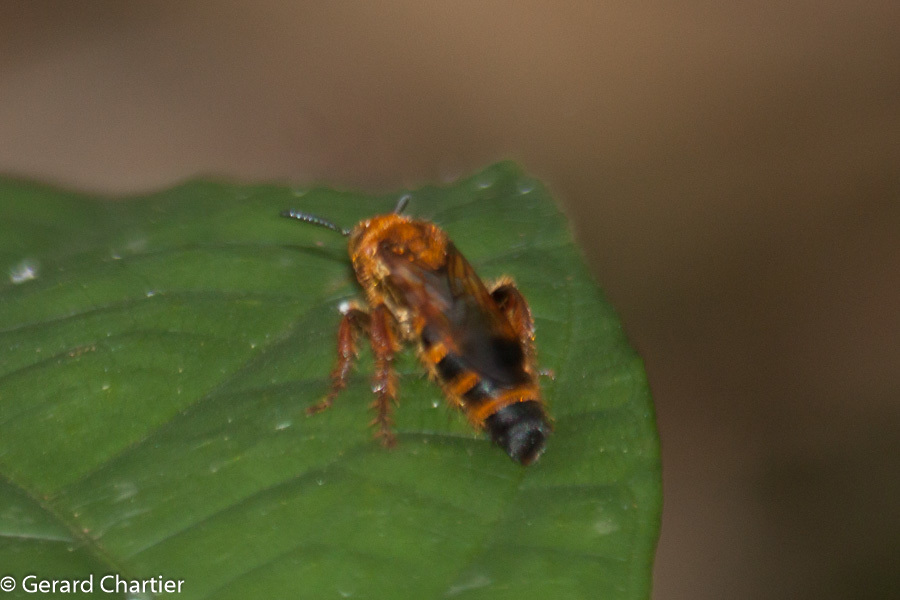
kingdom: Animalia
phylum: Arthropoda
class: Insecta
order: Hymenoptera
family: Scoliidae
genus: Campsomeris
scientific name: Campsomeris phalerata
